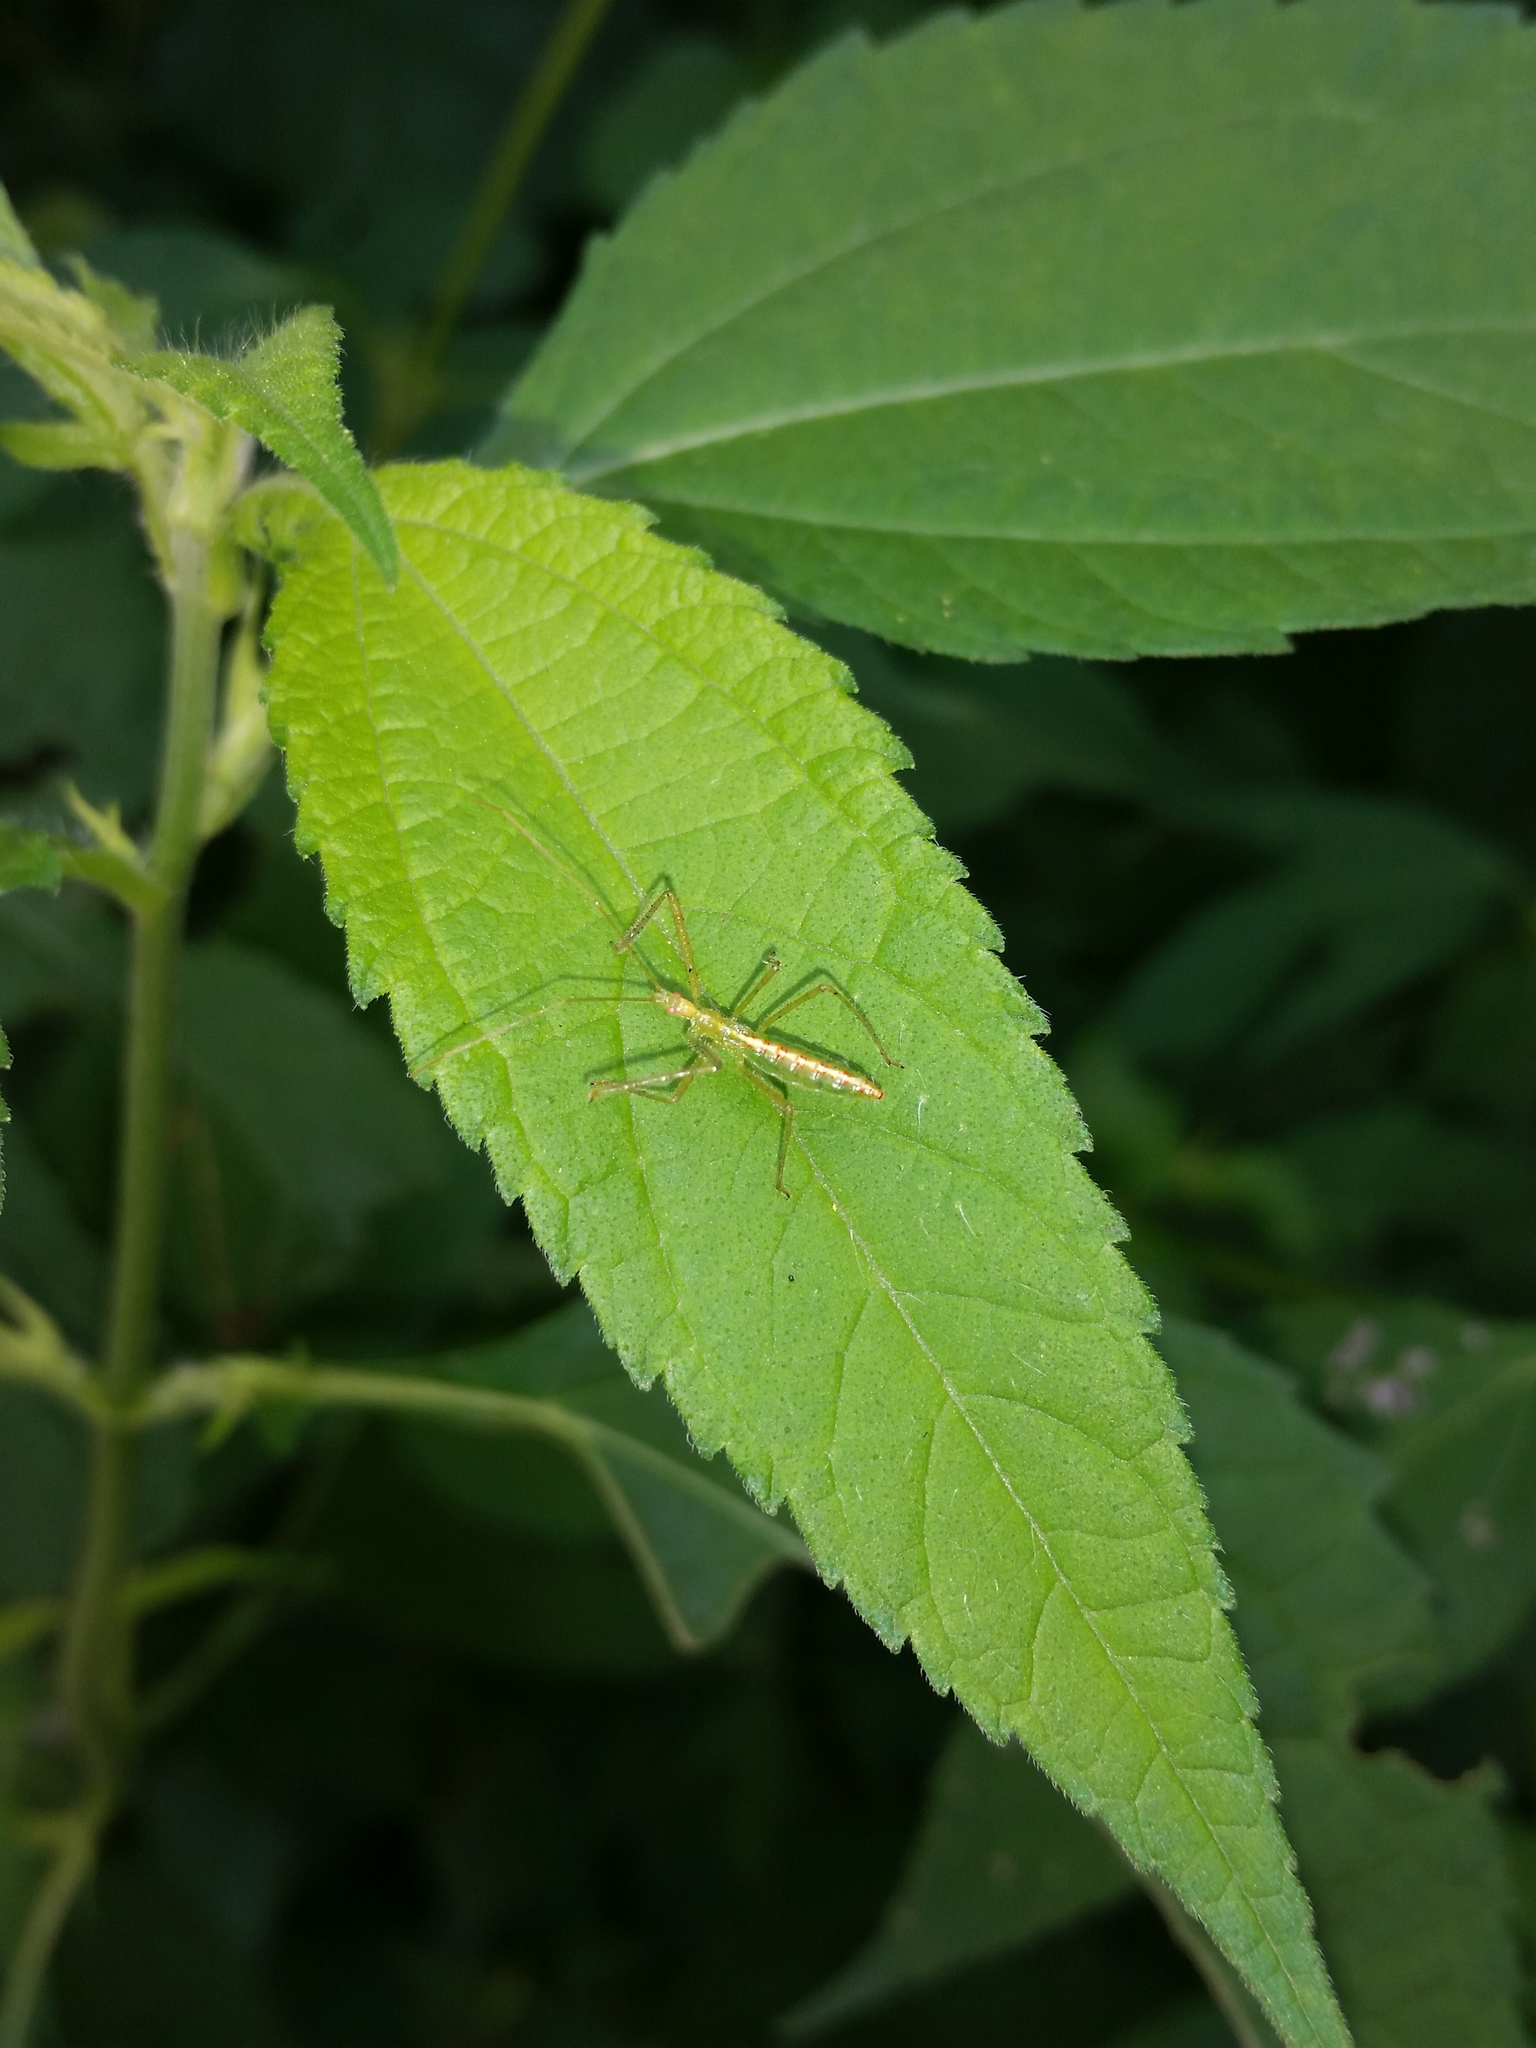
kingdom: Animalia
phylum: Arthropoda
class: Insecta
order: Hemiptera
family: Reduviidae
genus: Zelus
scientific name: Zelus luridus
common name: Pale green assassin bug
